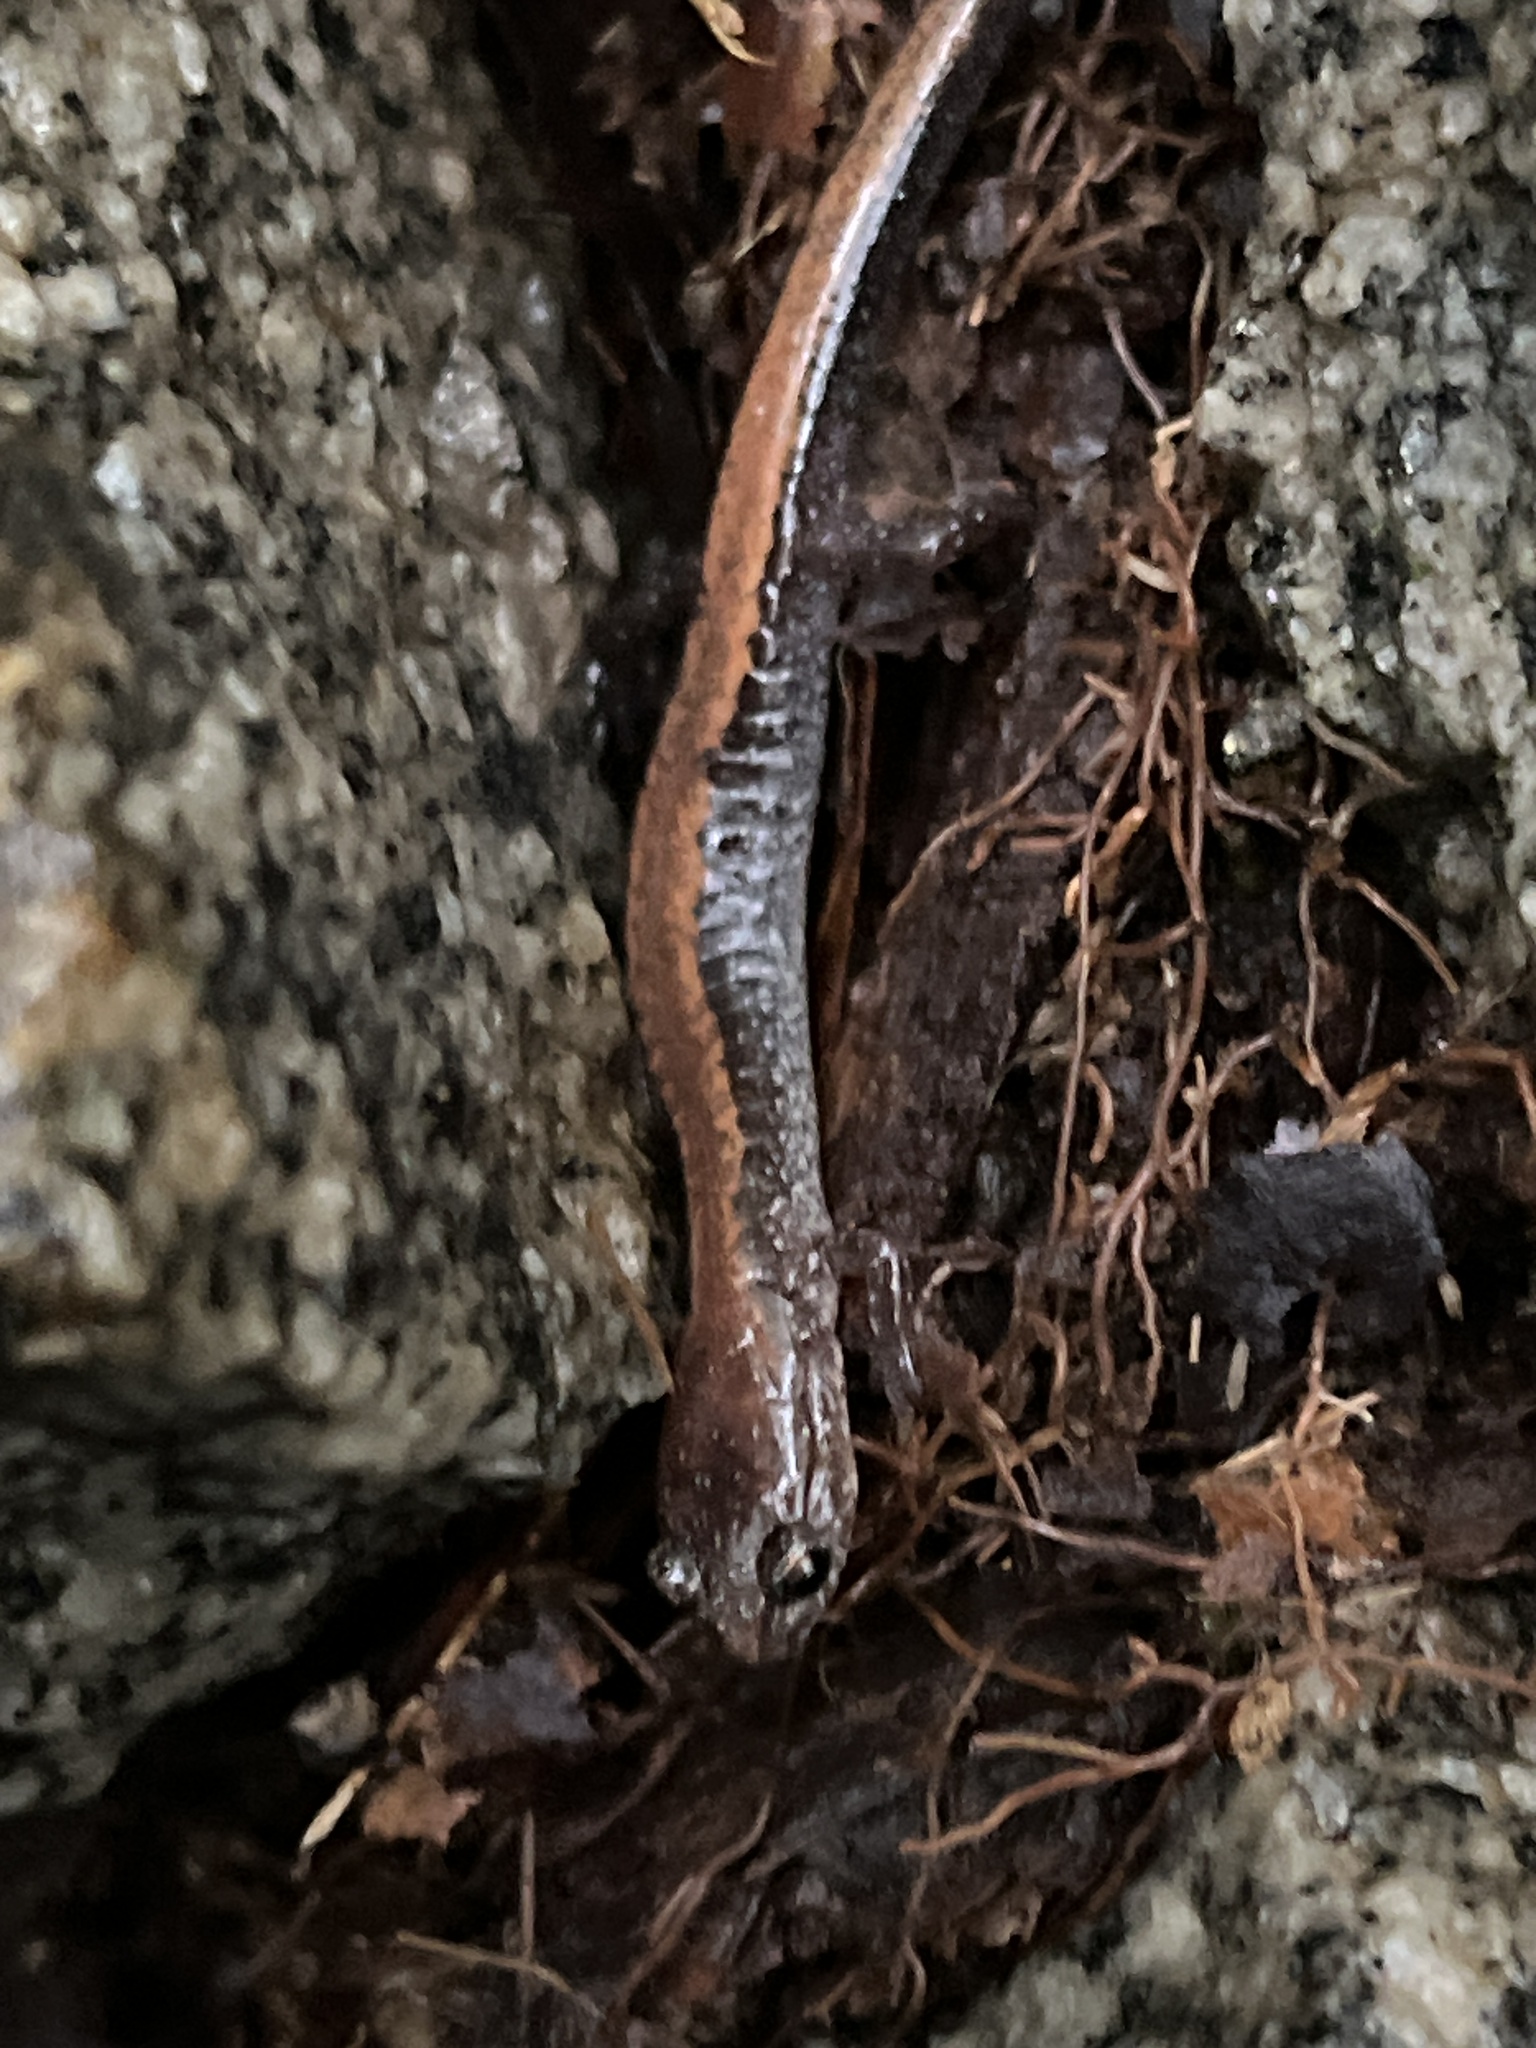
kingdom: Animalia
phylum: Chordata
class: Amphibia
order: Caudata
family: Plethodontidae
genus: Plethodon
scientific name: Plethodon cinereus
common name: Redback salamander
